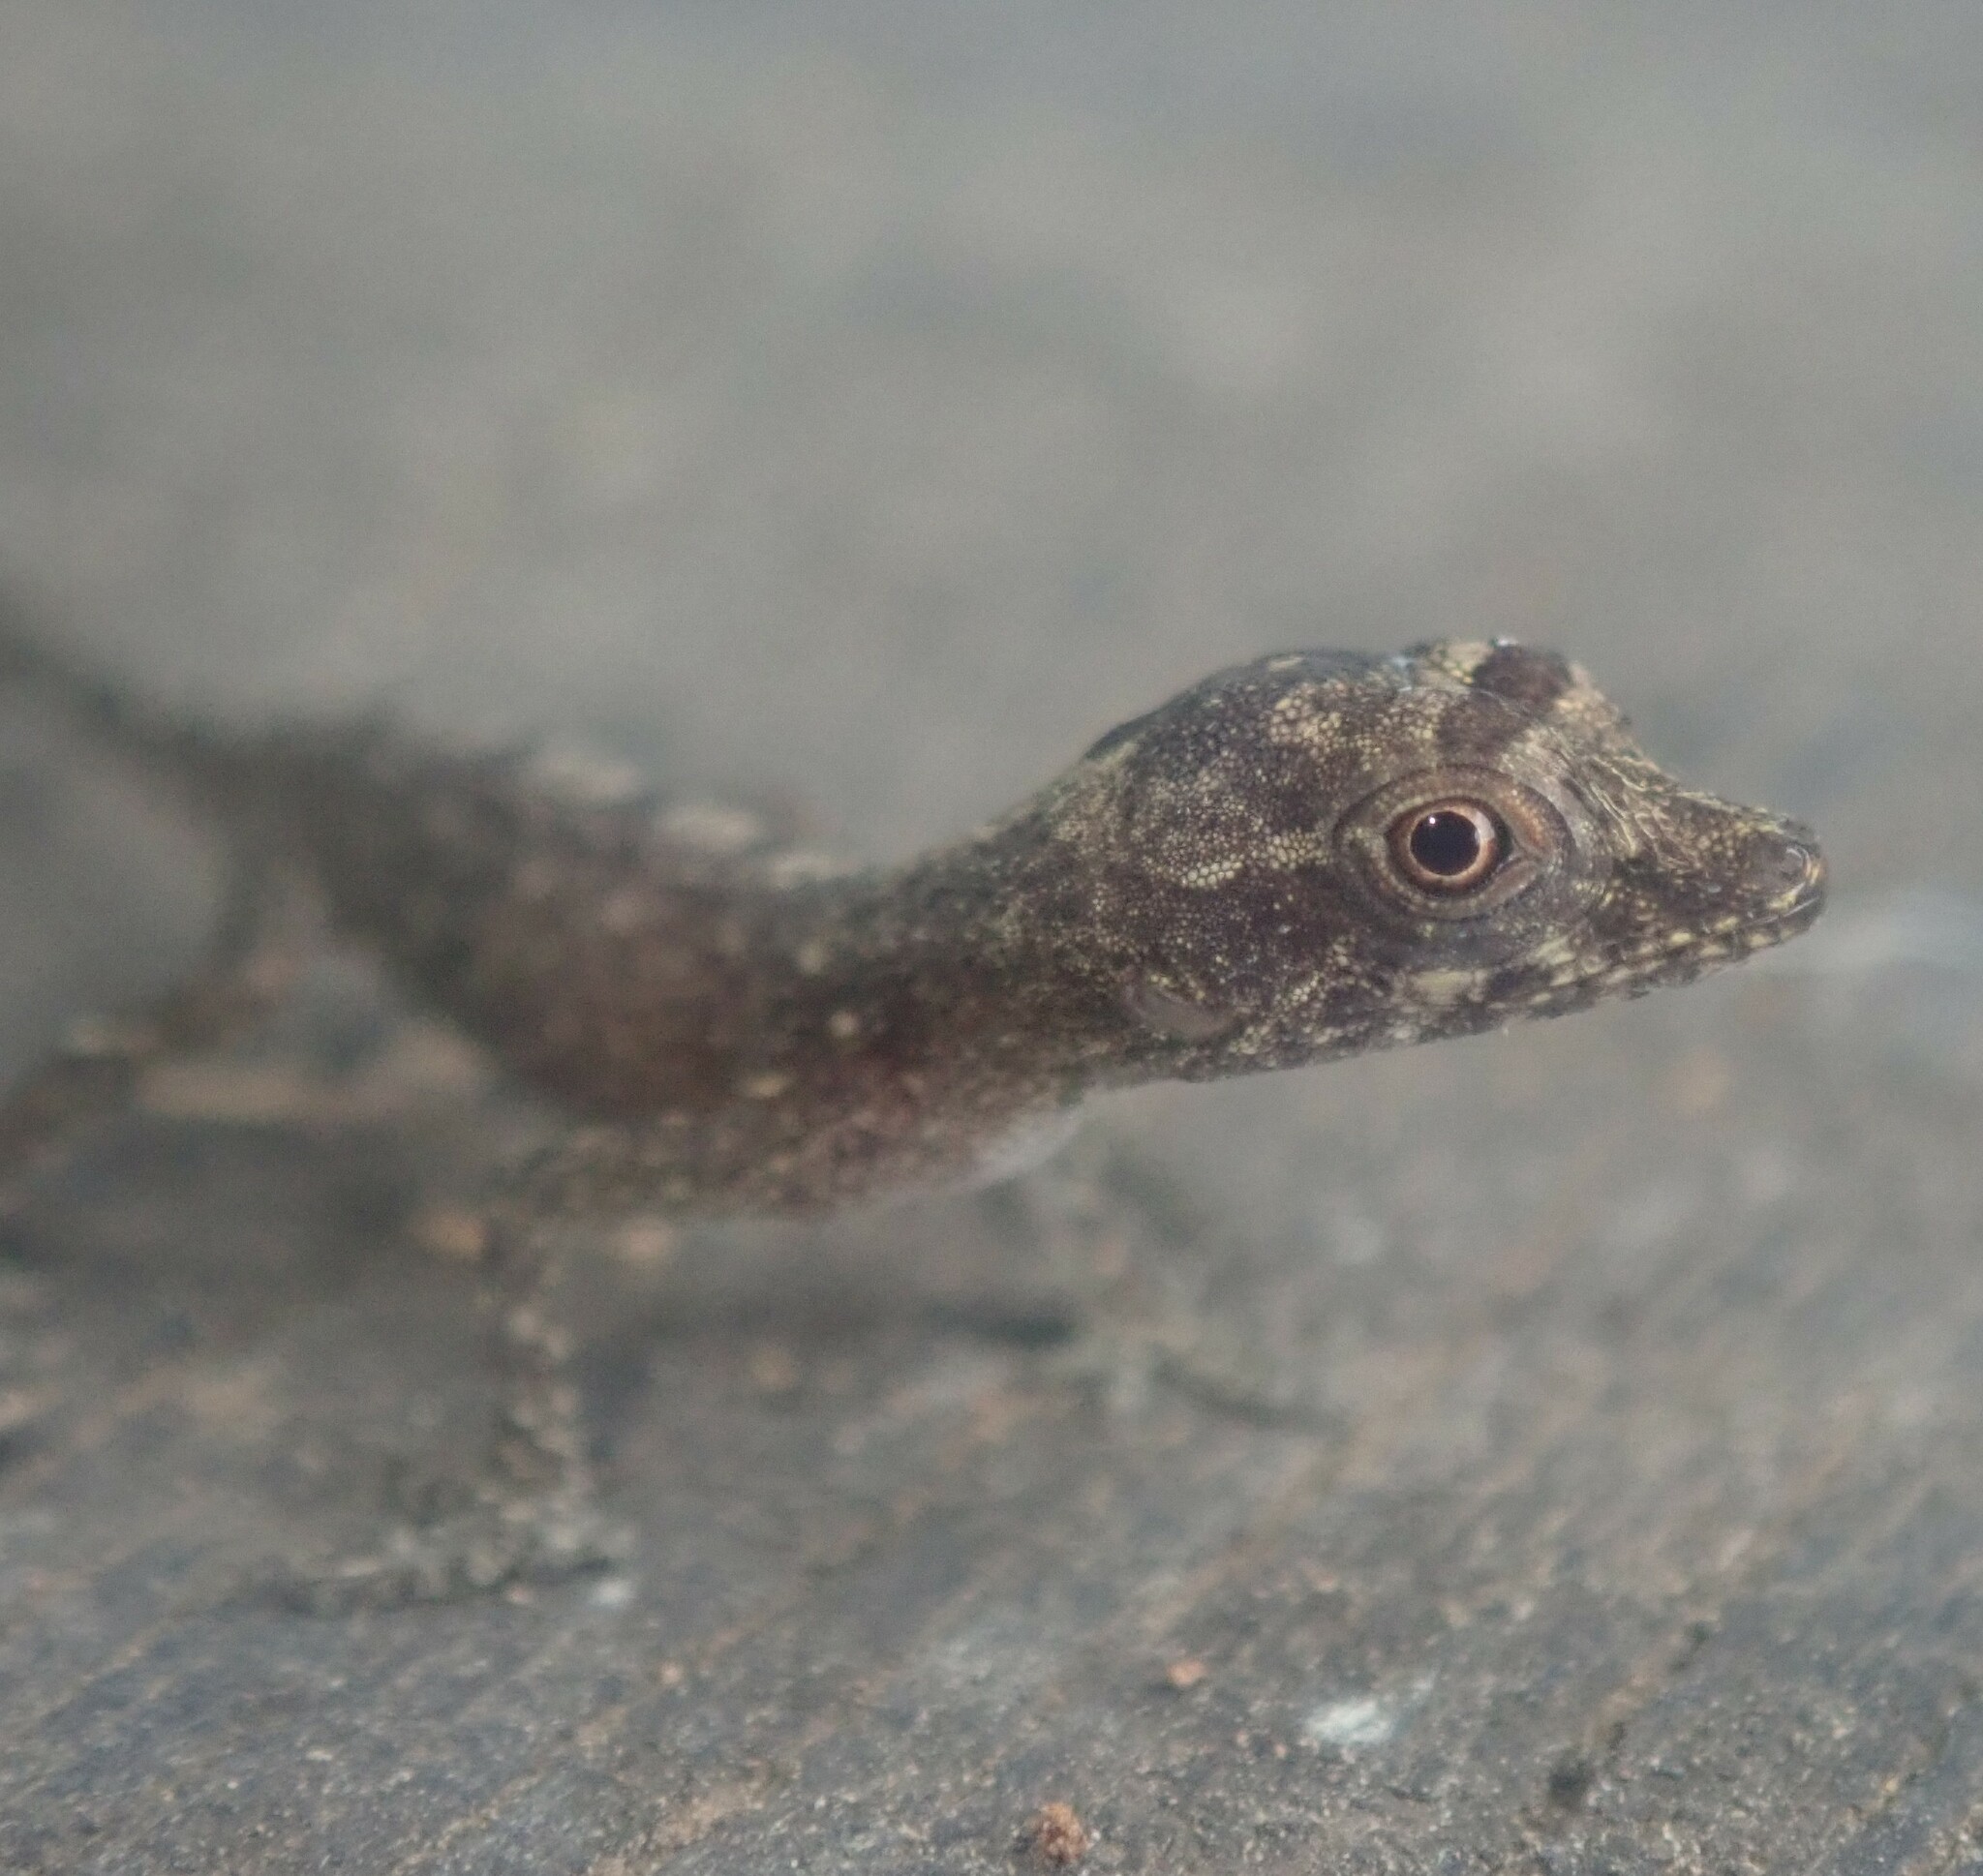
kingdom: Animalia
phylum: Chordata
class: Squamata
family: Dactyloidae
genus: Anolis
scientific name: Anolis fuscoauratus
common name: Brown-eared anole
